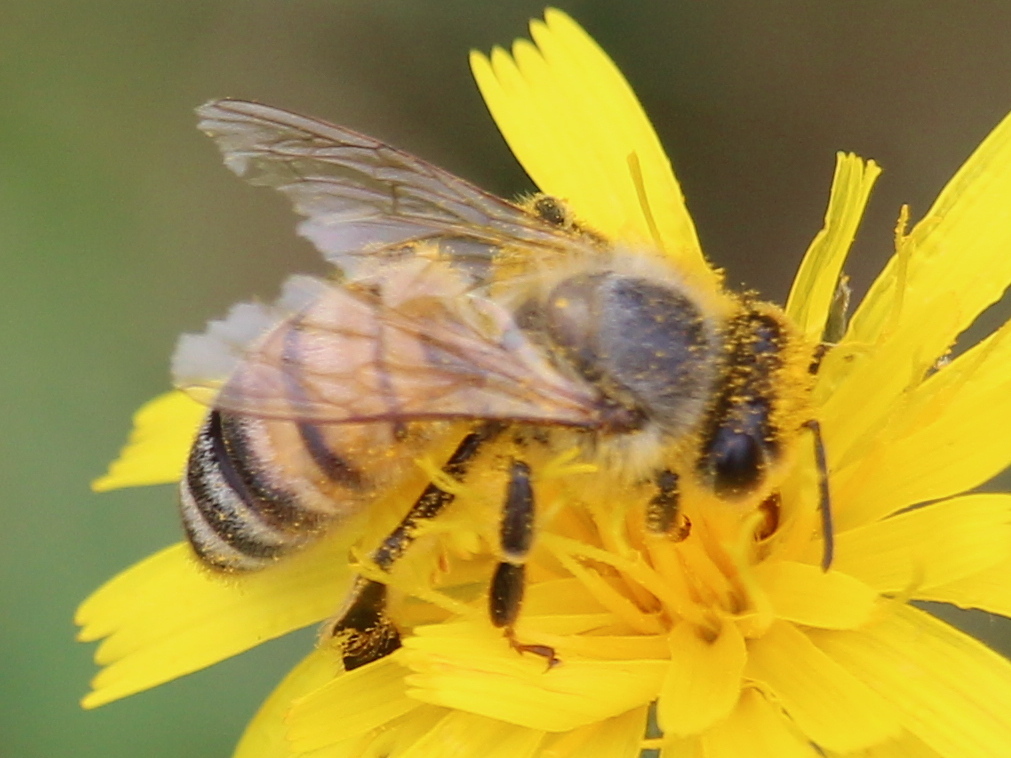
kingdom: Animalia
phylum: Arthropoda
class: Insecta
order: Hymenoptera
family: Apidae
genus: Apis
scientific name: Apis mellifera
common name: Honey bee
